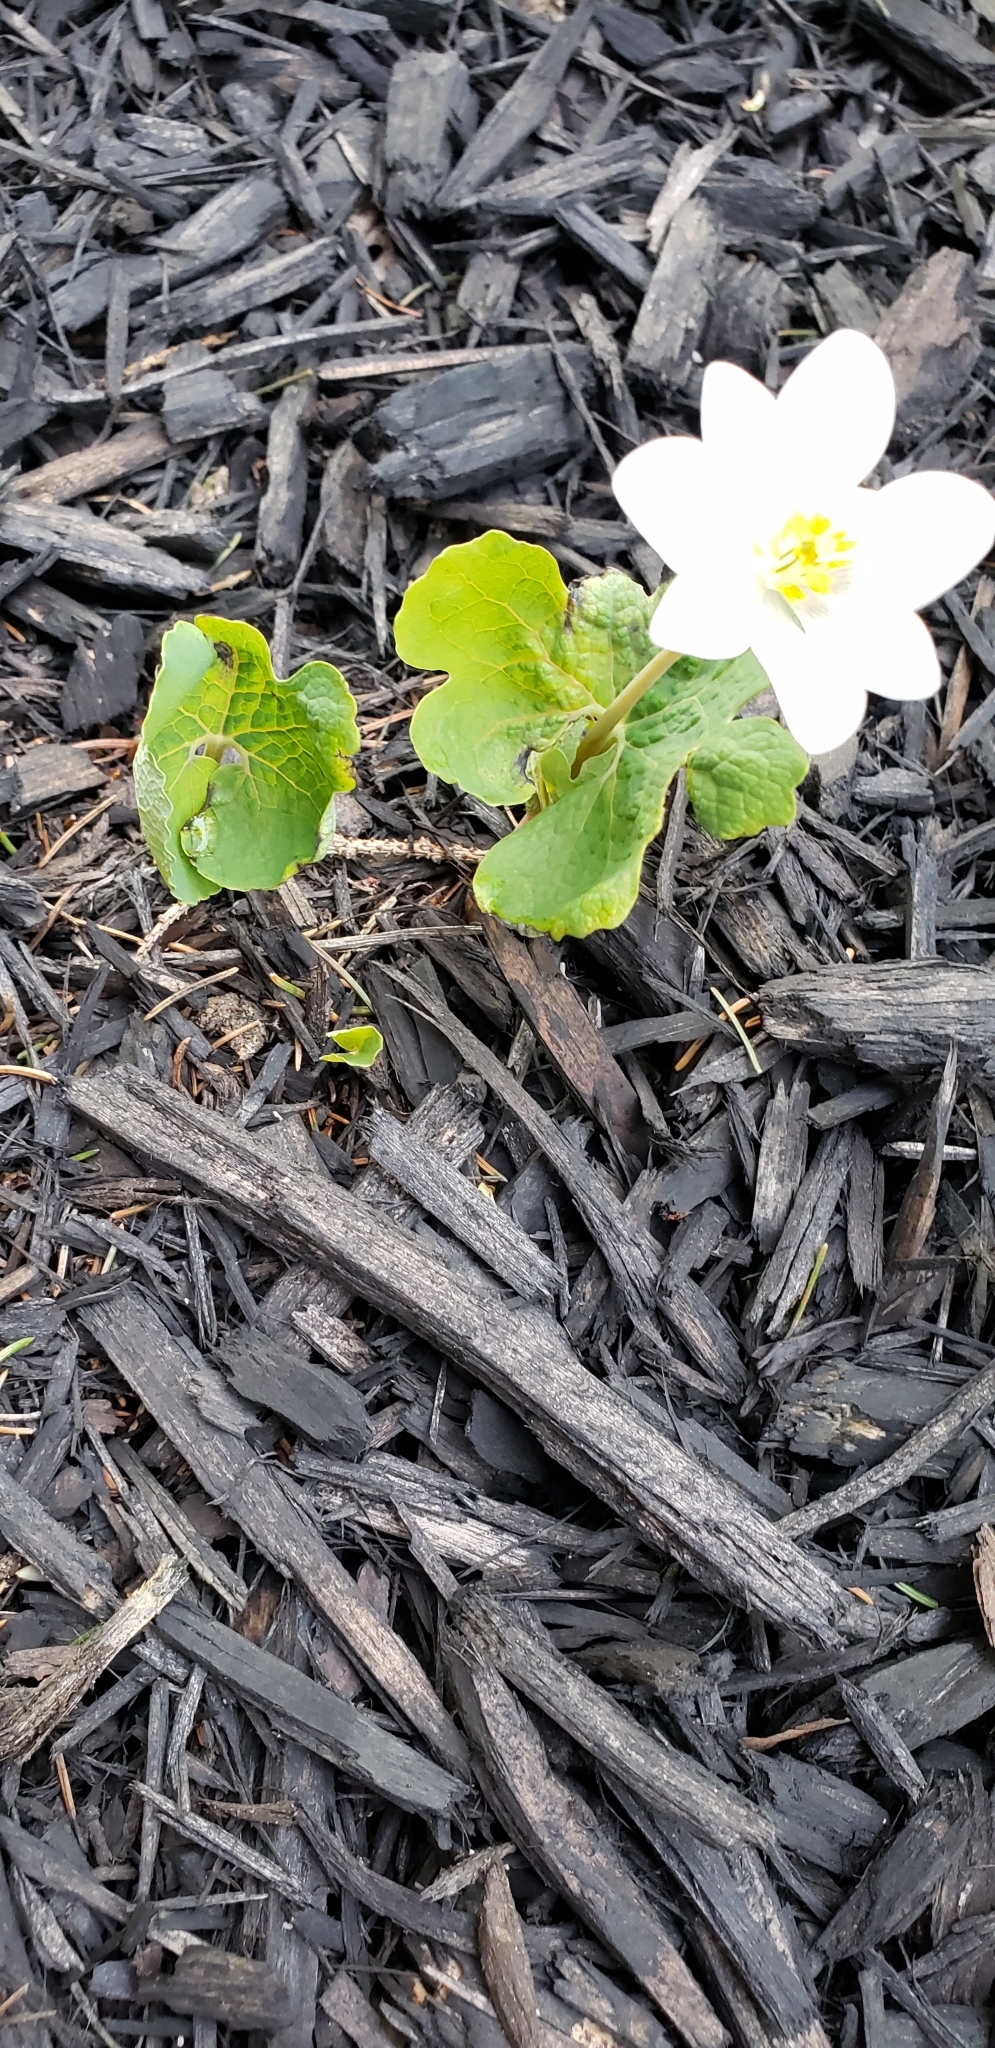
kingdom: Plantae
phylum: Tracheophyta
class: Magnoliopsida
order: Ranunculales
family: Papaveraceae
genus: Sanguinaria
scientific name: Sanguinaria canadensis
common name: Bloodroot
